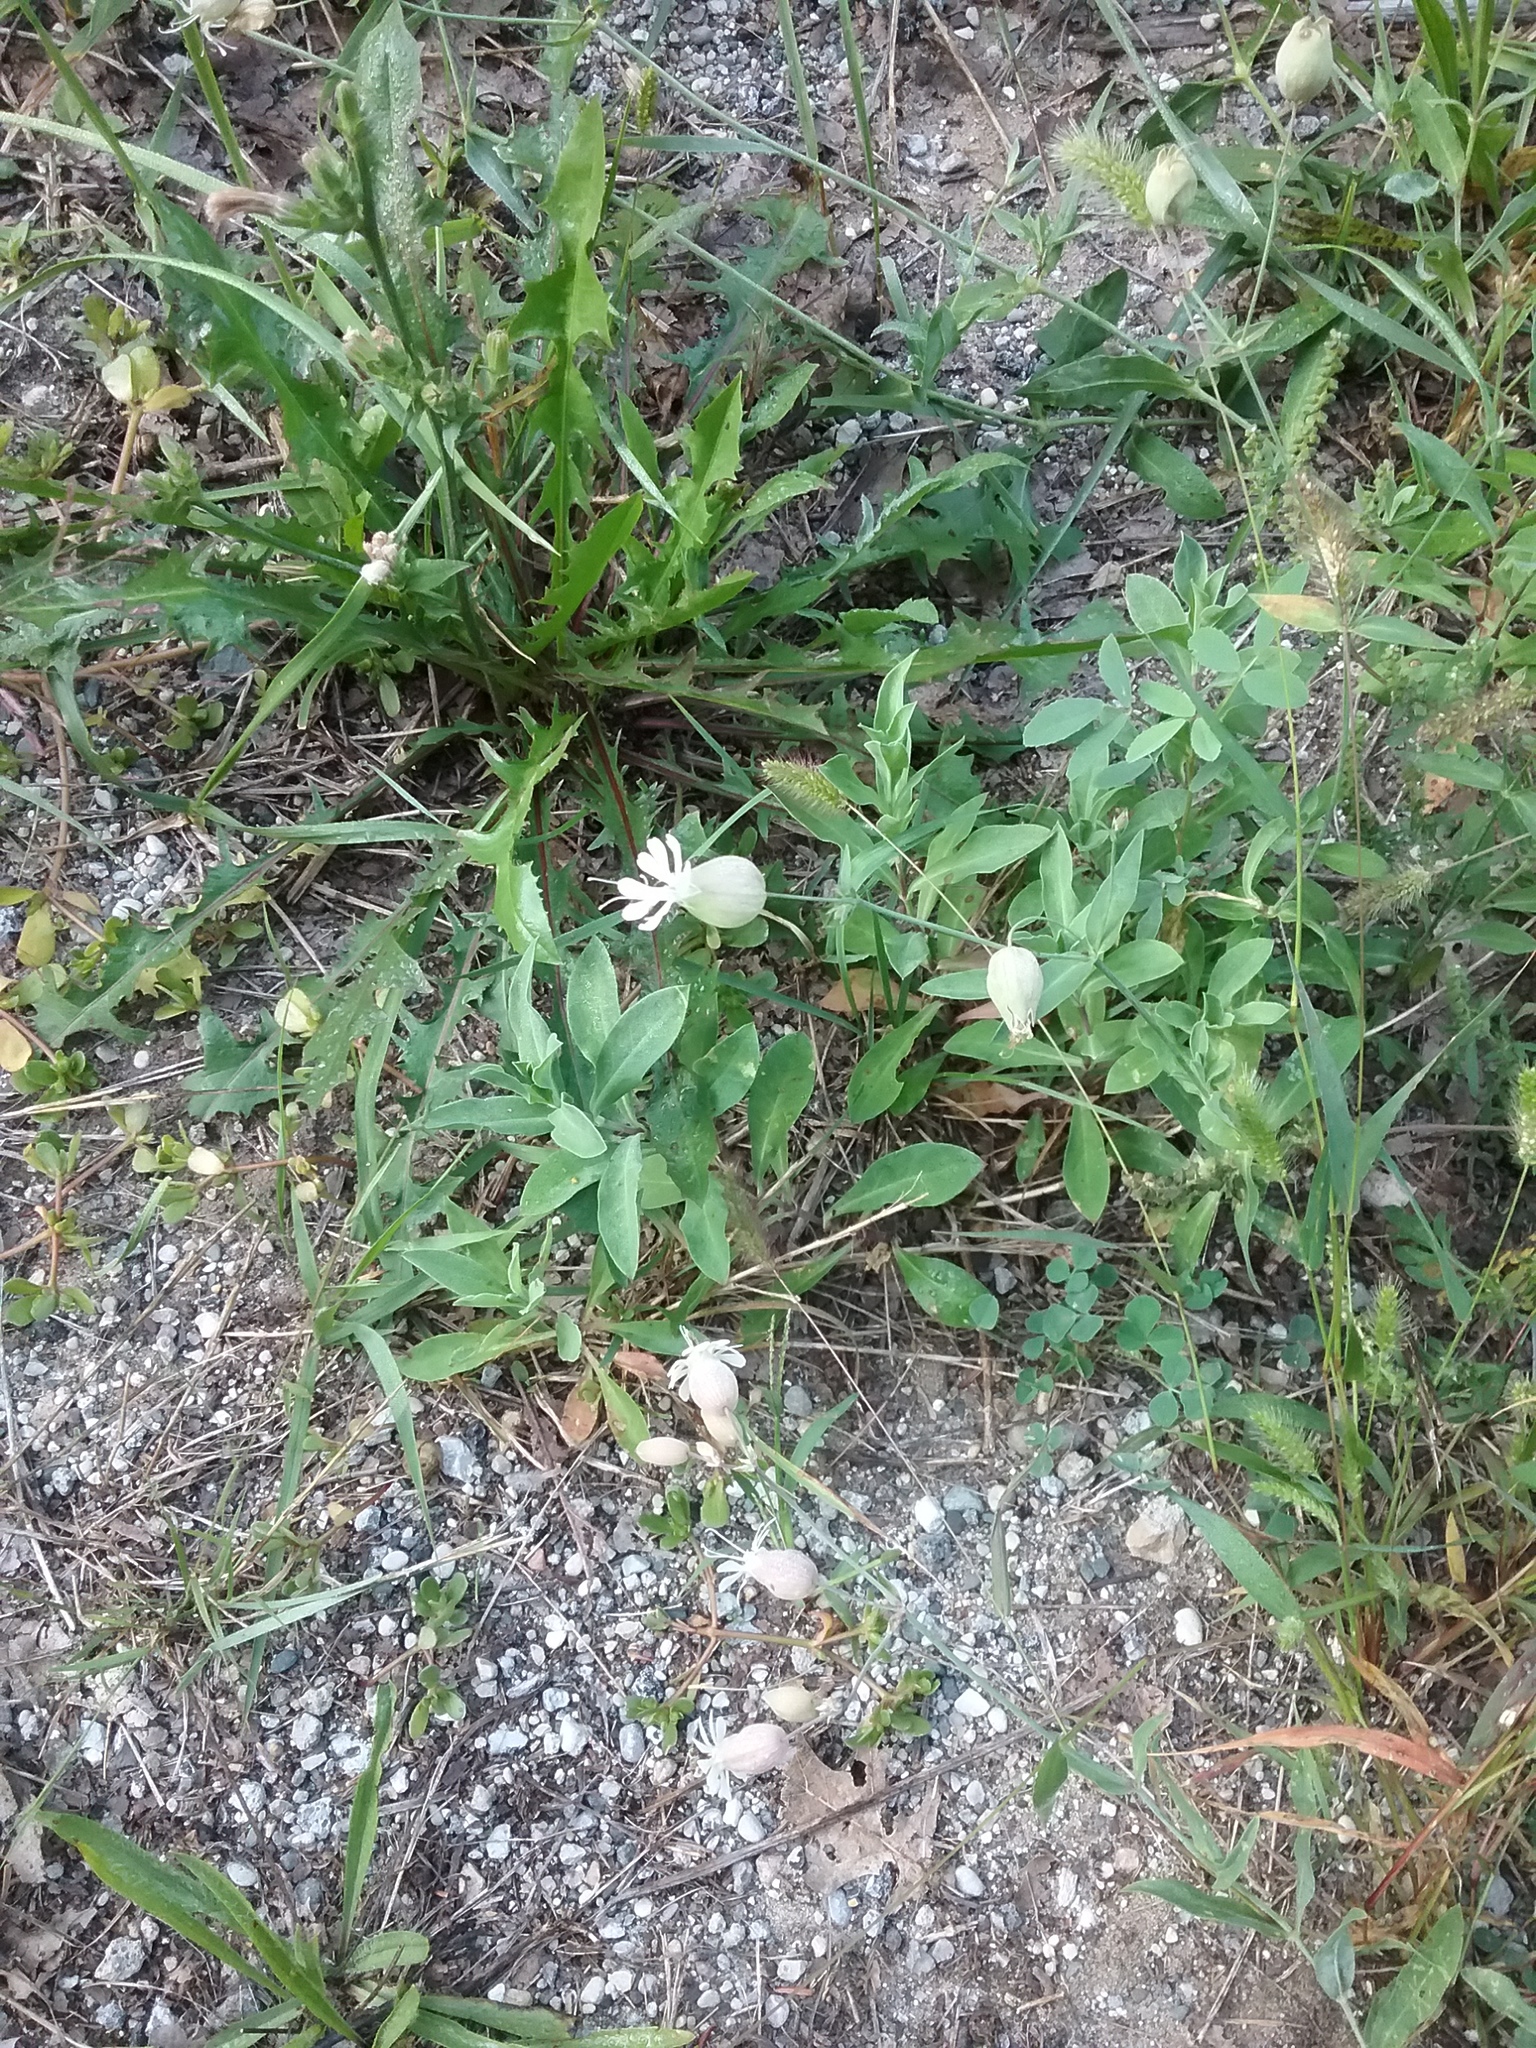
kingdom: Plantae
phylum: Tracheophyta
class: Magnoliopsida
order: Caryophyllales
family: Caryophyllaceae
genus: Silene
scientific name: Silene vulgaris
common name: Bladder campion
